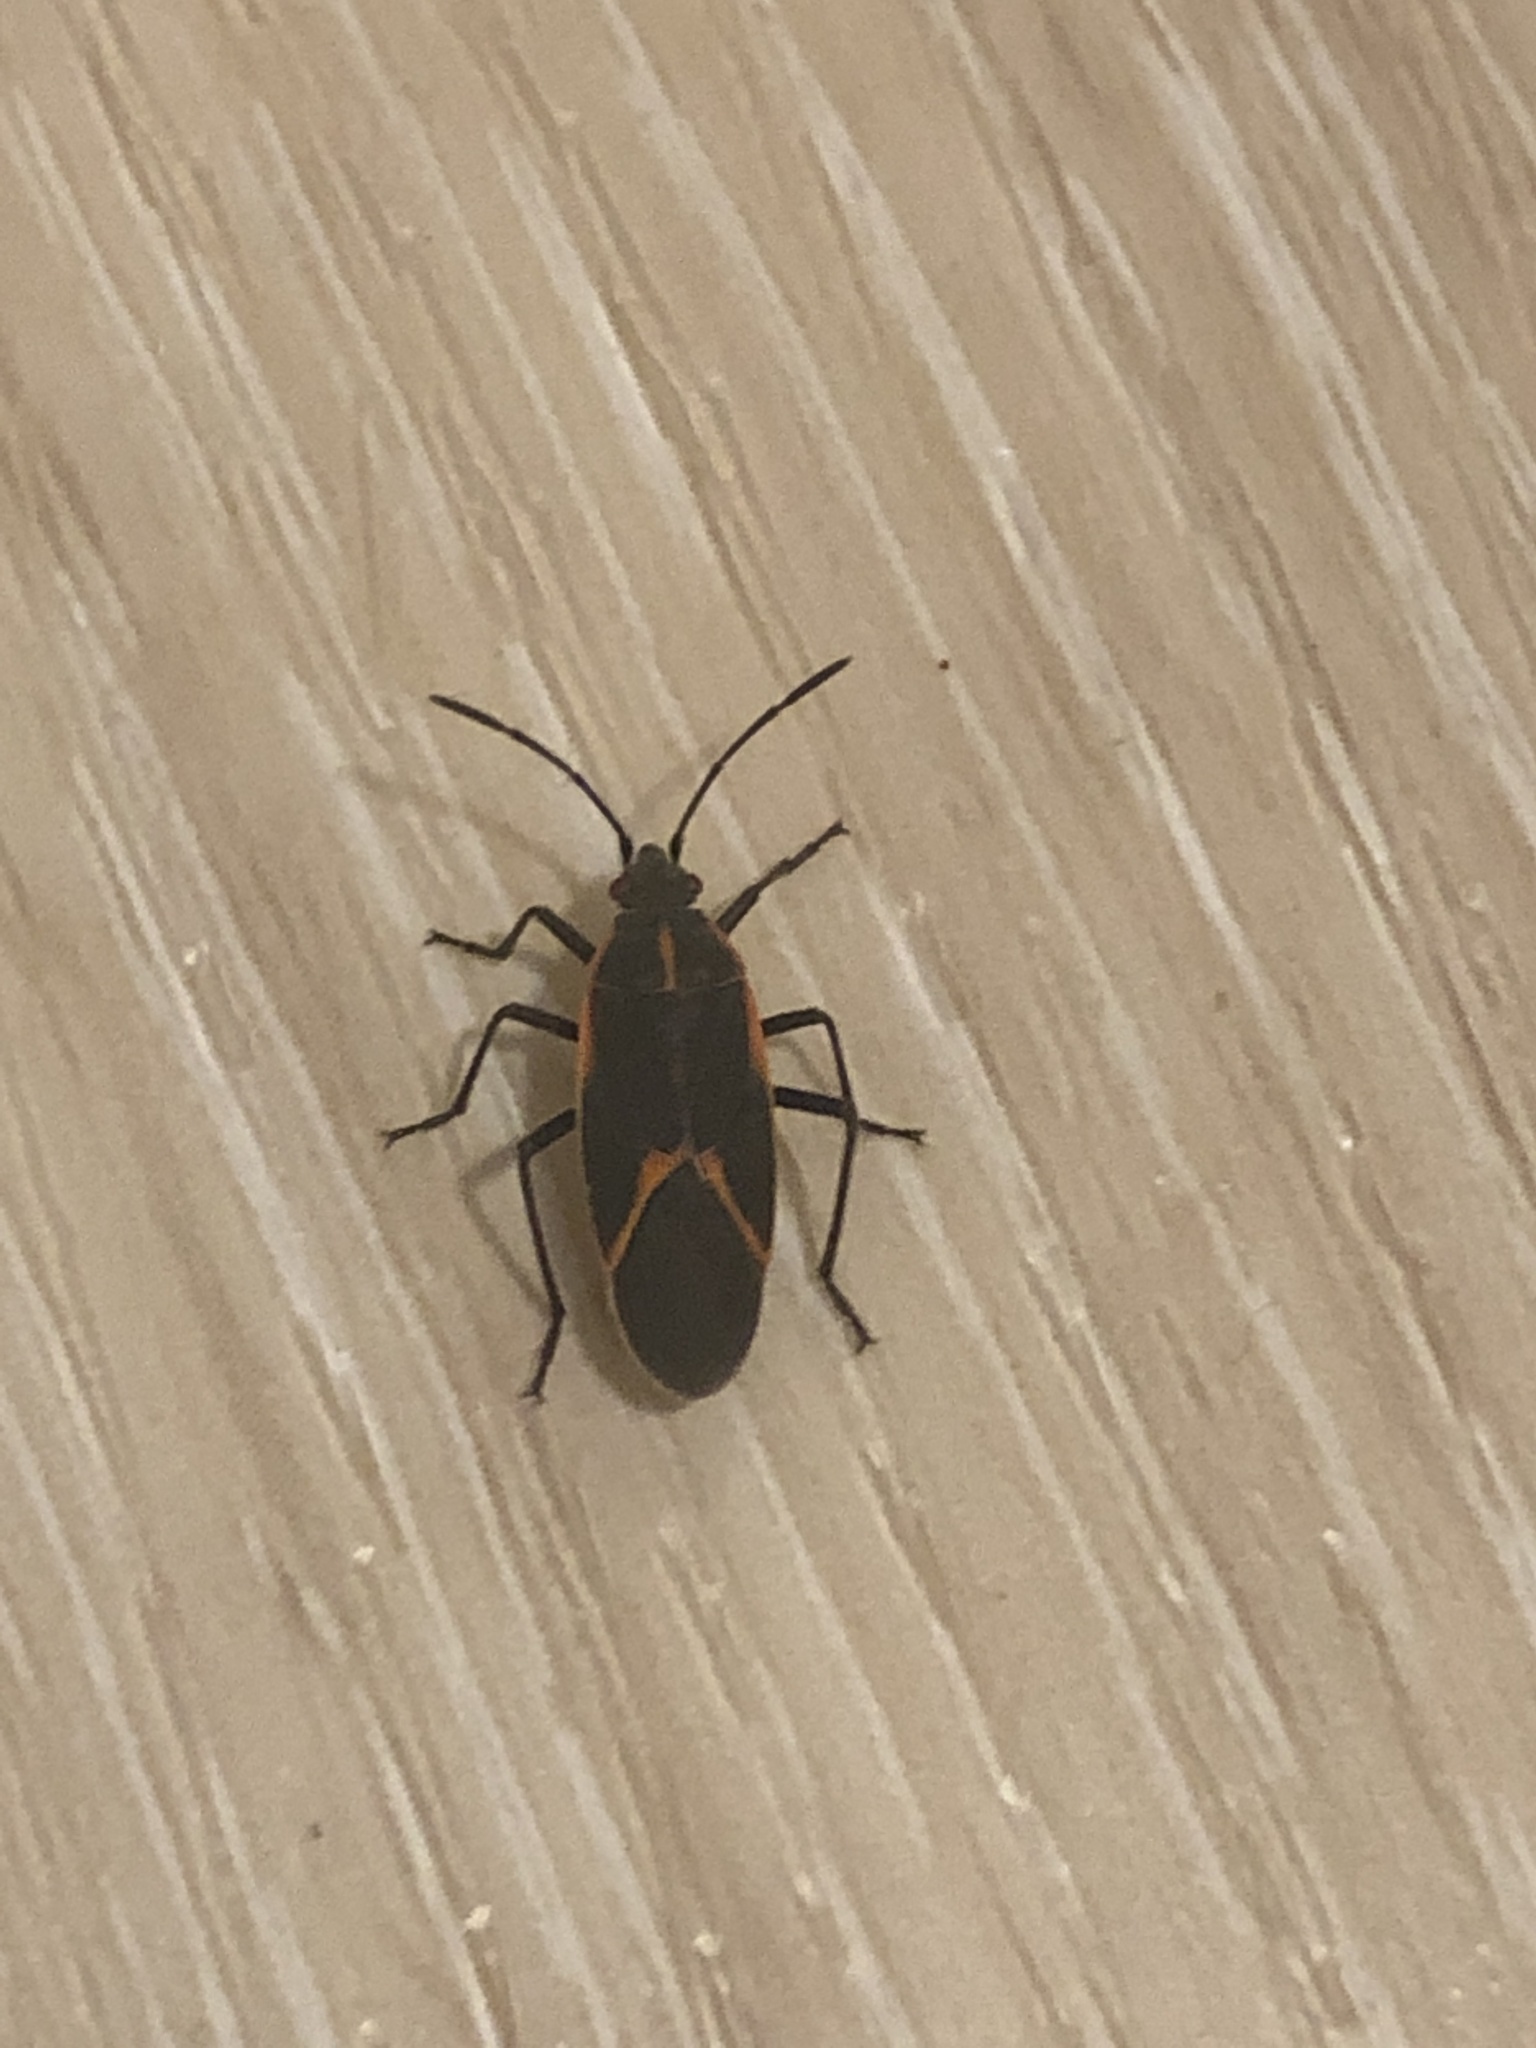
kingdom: Animalia
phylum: Arthropoda
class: Insecta
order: Hemiptera
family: Rhopalidae
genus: Boisea
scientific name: Boisea trivittata
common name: Boxelder bug
